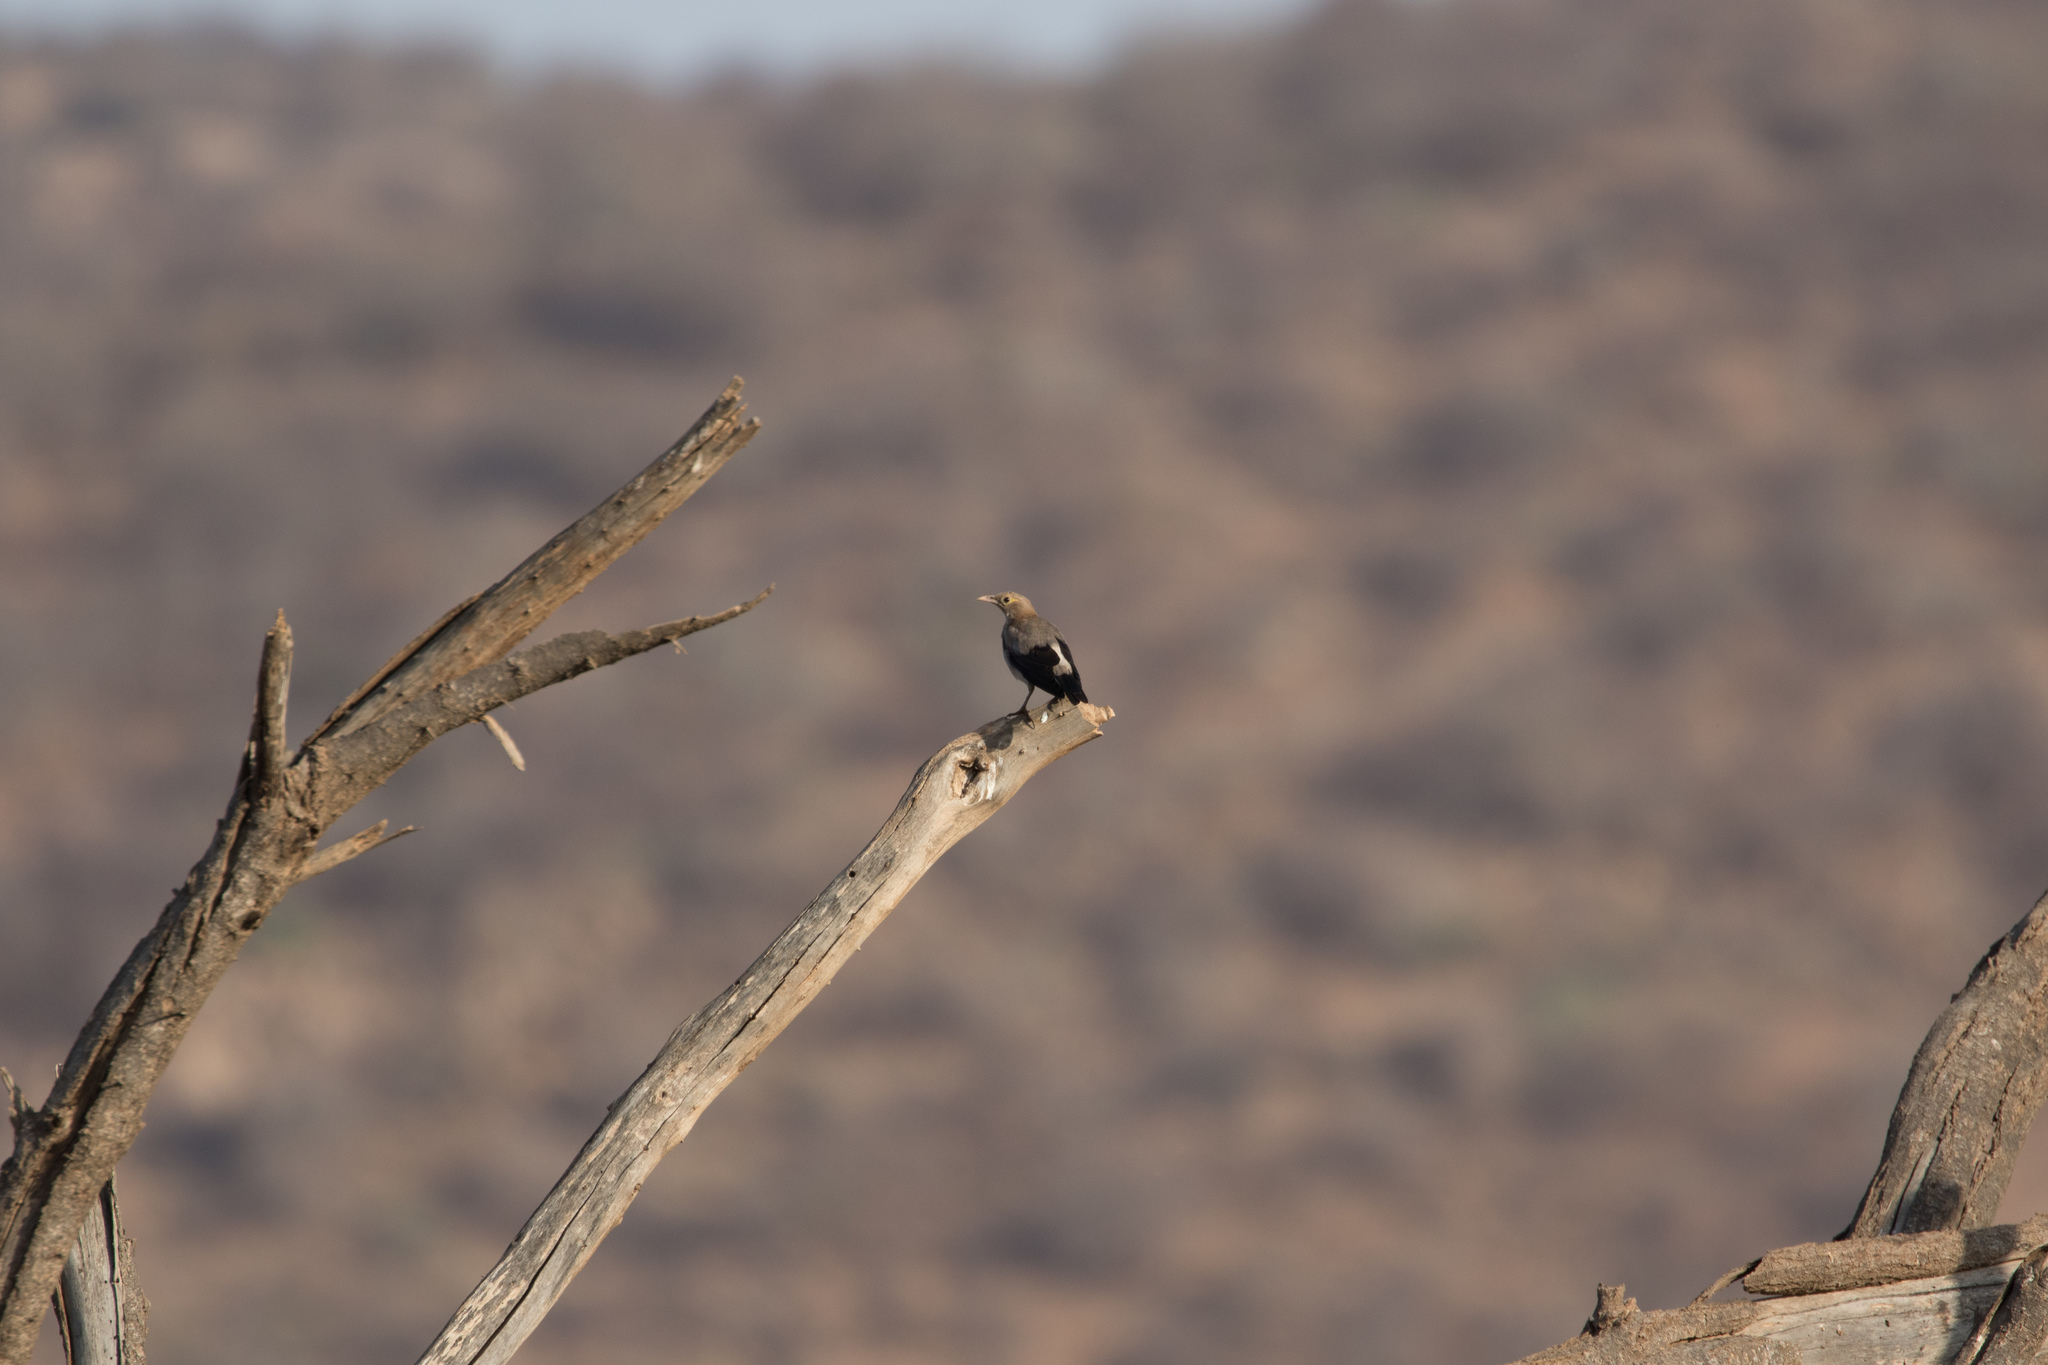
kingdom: Animalia
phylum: Chordata
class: Aves
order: Passeriformes
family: Sturnidae
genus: Creatophora
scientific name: Creatophora cinerea
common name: Wattled starling
